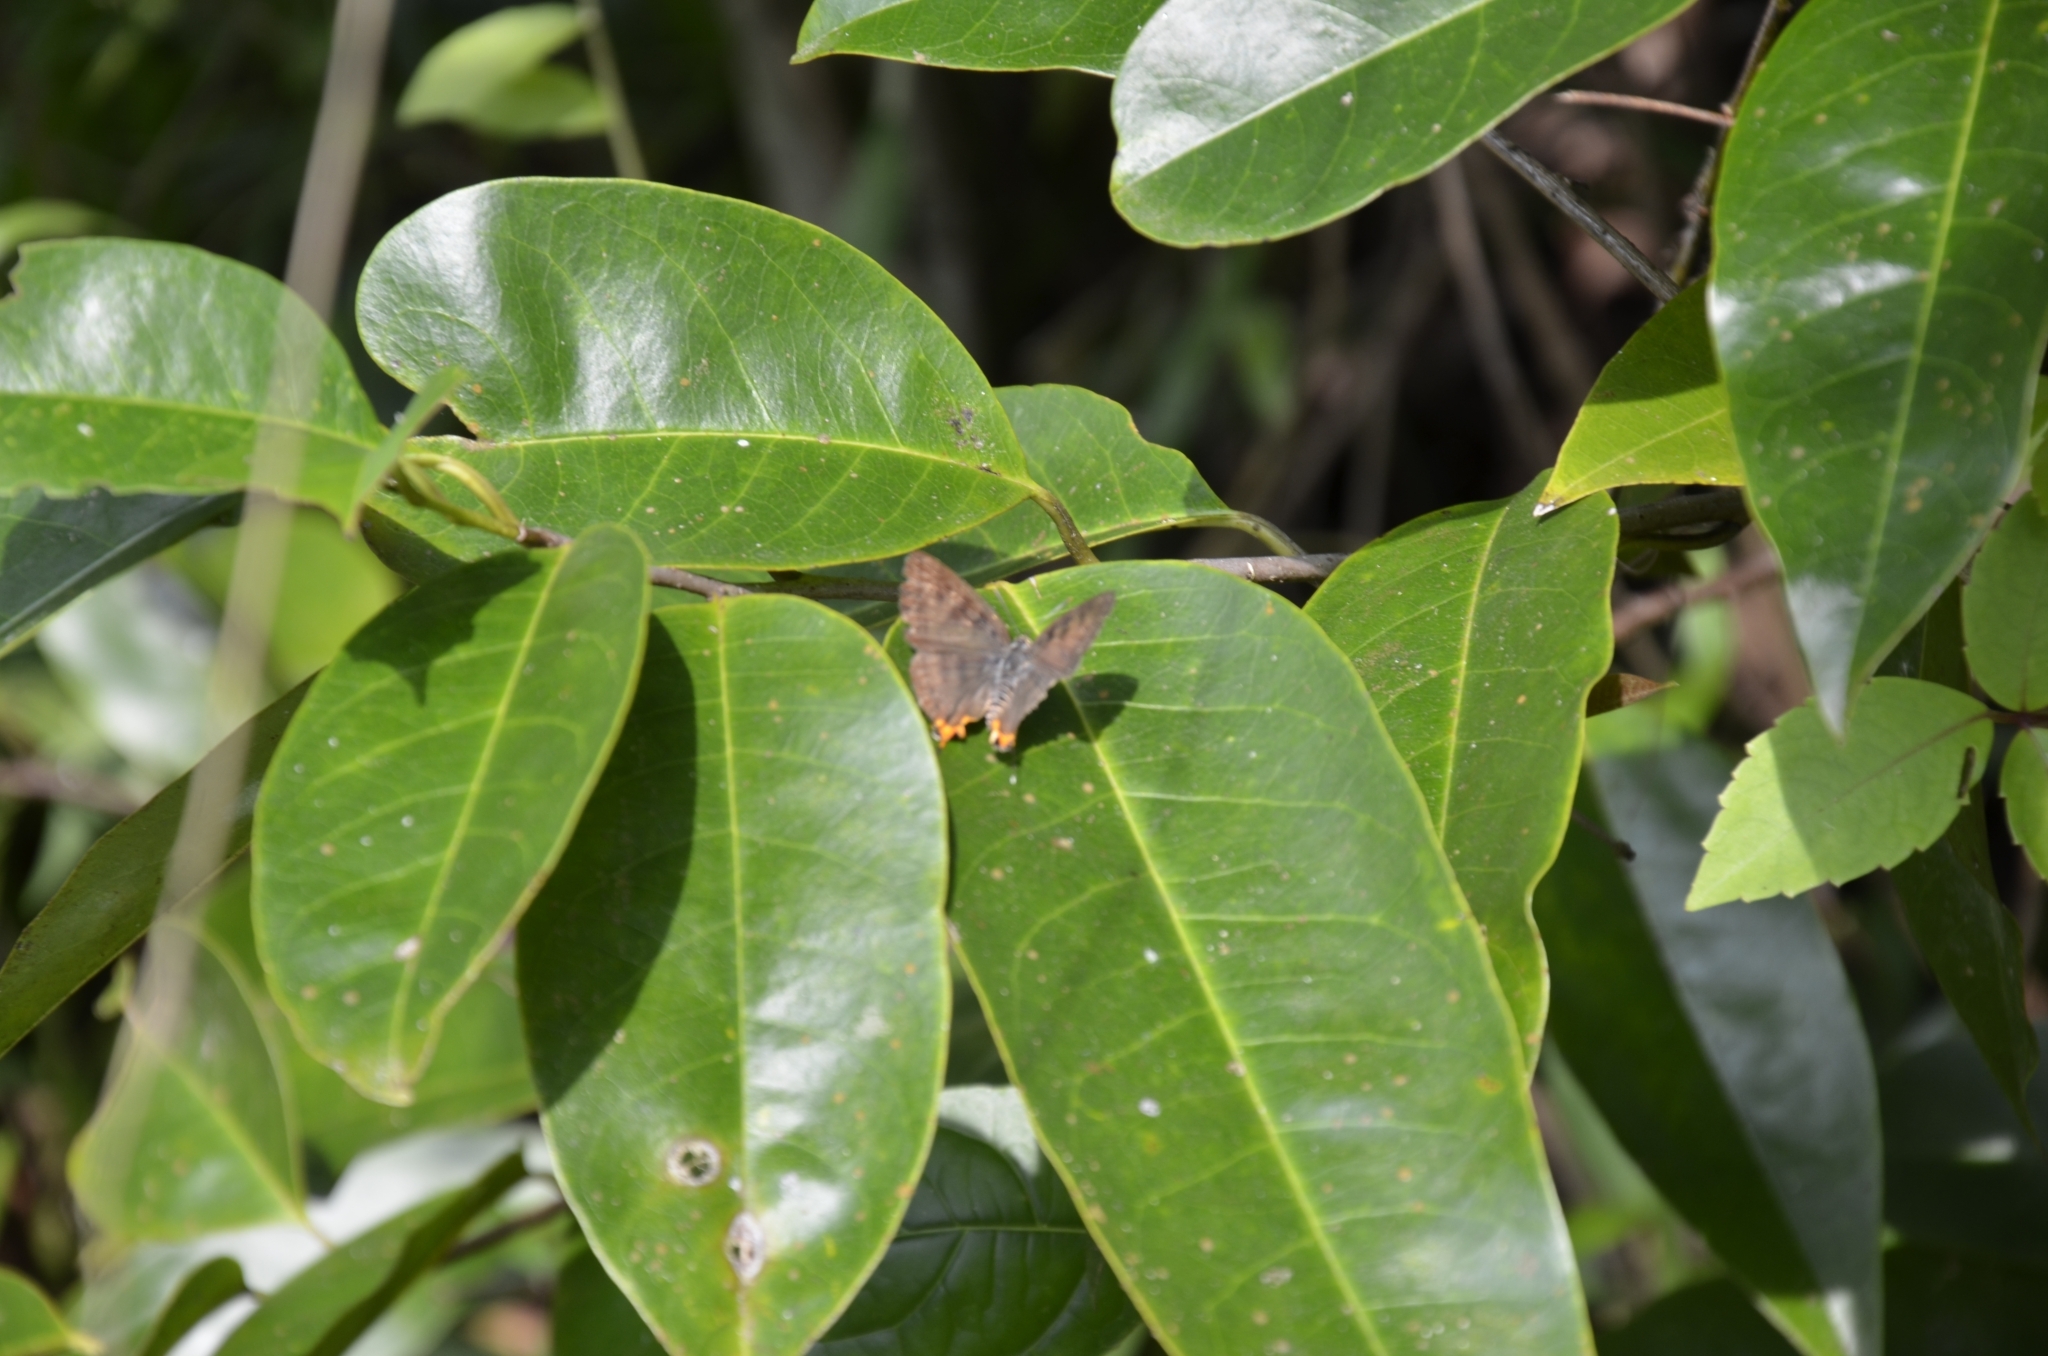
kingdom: Animalia
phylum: Arthropoda
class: Insecta
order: Lepidoptera
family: Lycaenidae
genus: Cigaritis
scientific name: Cigaritis lohita
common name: Long-banded silverline
